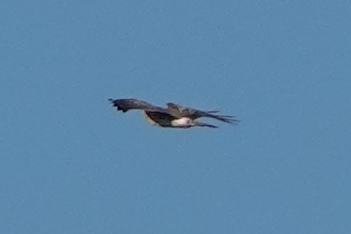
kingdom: Animalia
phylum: Chordata
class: Aves
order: Accipitriformes
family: Accipitridae
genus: Circus
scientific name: Circus cyaneus
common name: Hen harrier
